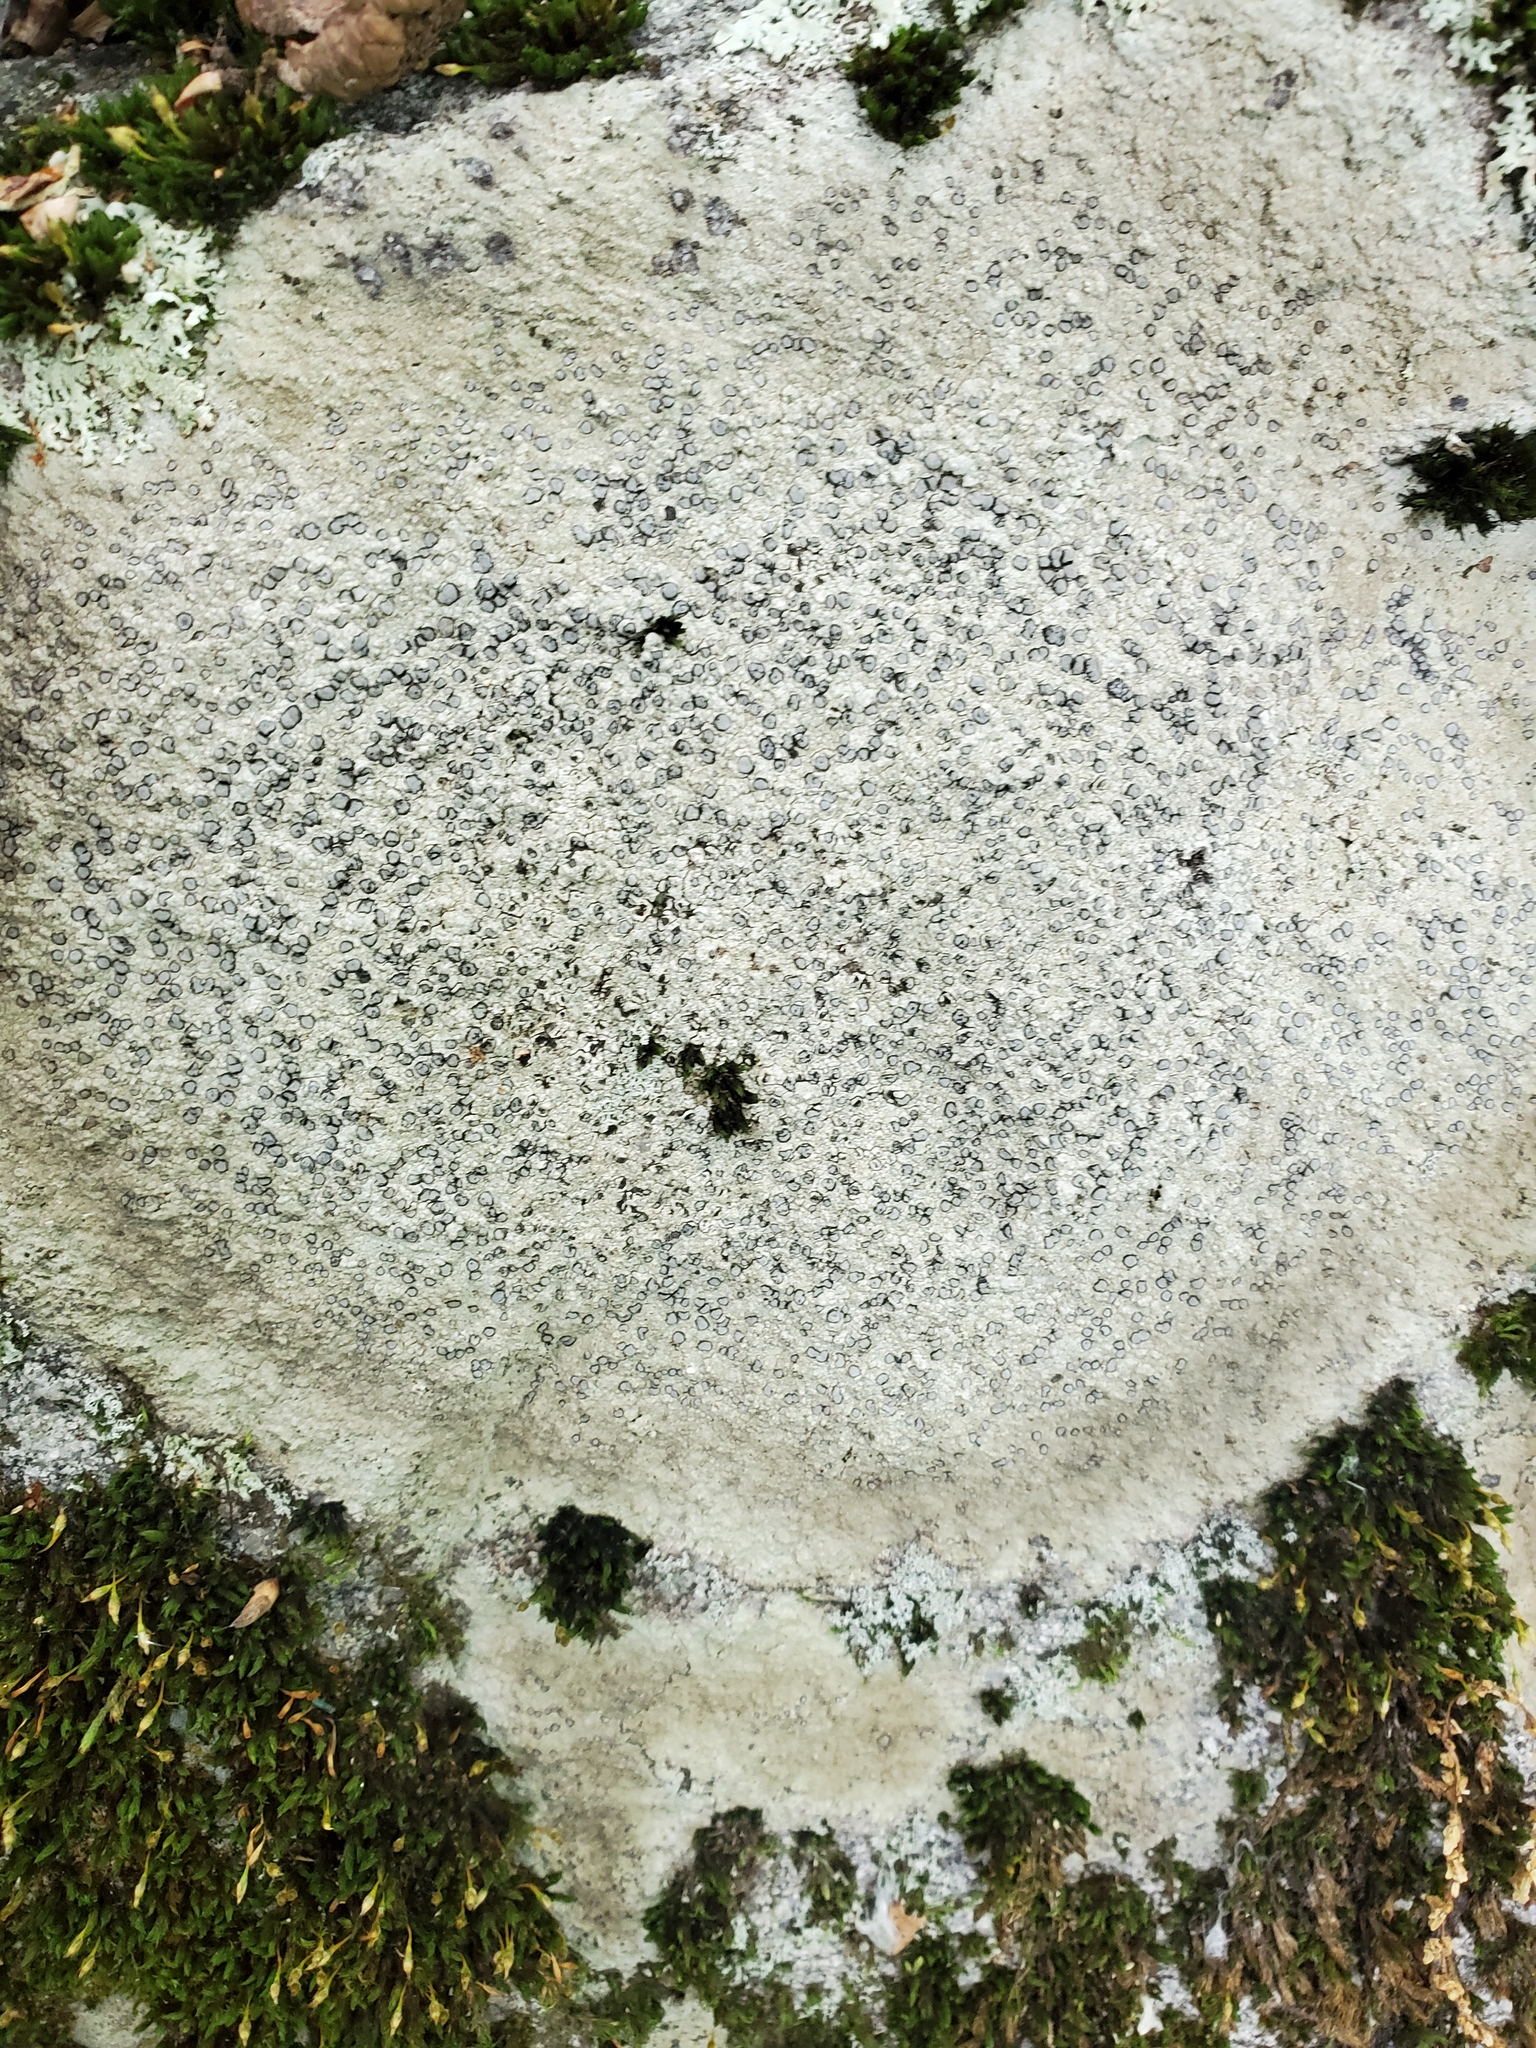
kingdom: Fungi
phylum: Ascomycota
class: Lecanoromycetes
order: Lecideales
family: Lecideaceae
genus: Porpidia
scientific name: Porpidia albocaerulescens
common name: Smokey-eyed boulder lichen
